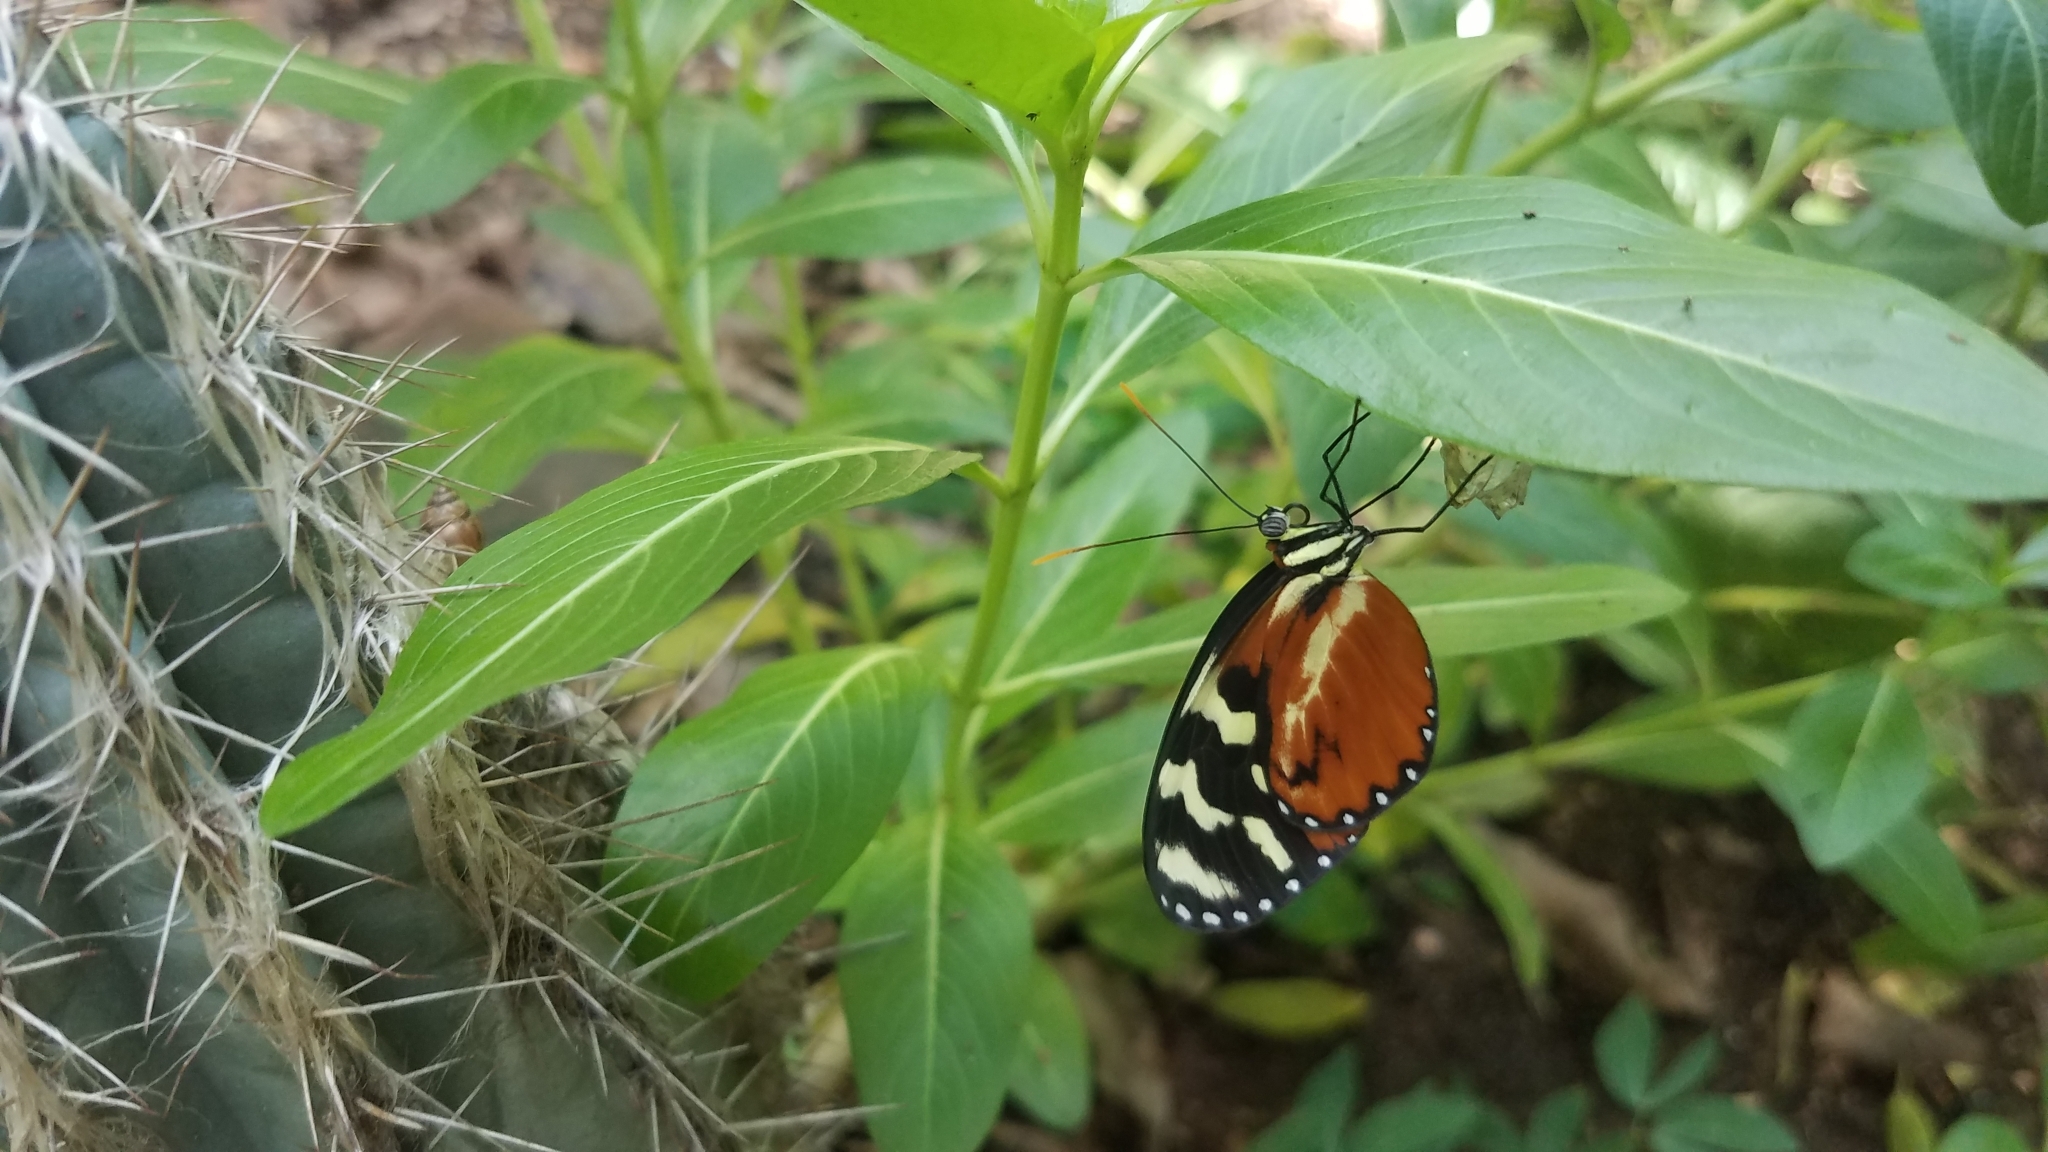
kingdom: Animalia
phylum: Arthropoda
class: Insecta
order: Lepidoptera
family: Nymphalidae
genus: Mechanitis
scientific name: Mechanitis polymnia
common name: Disturbed tigerwing
